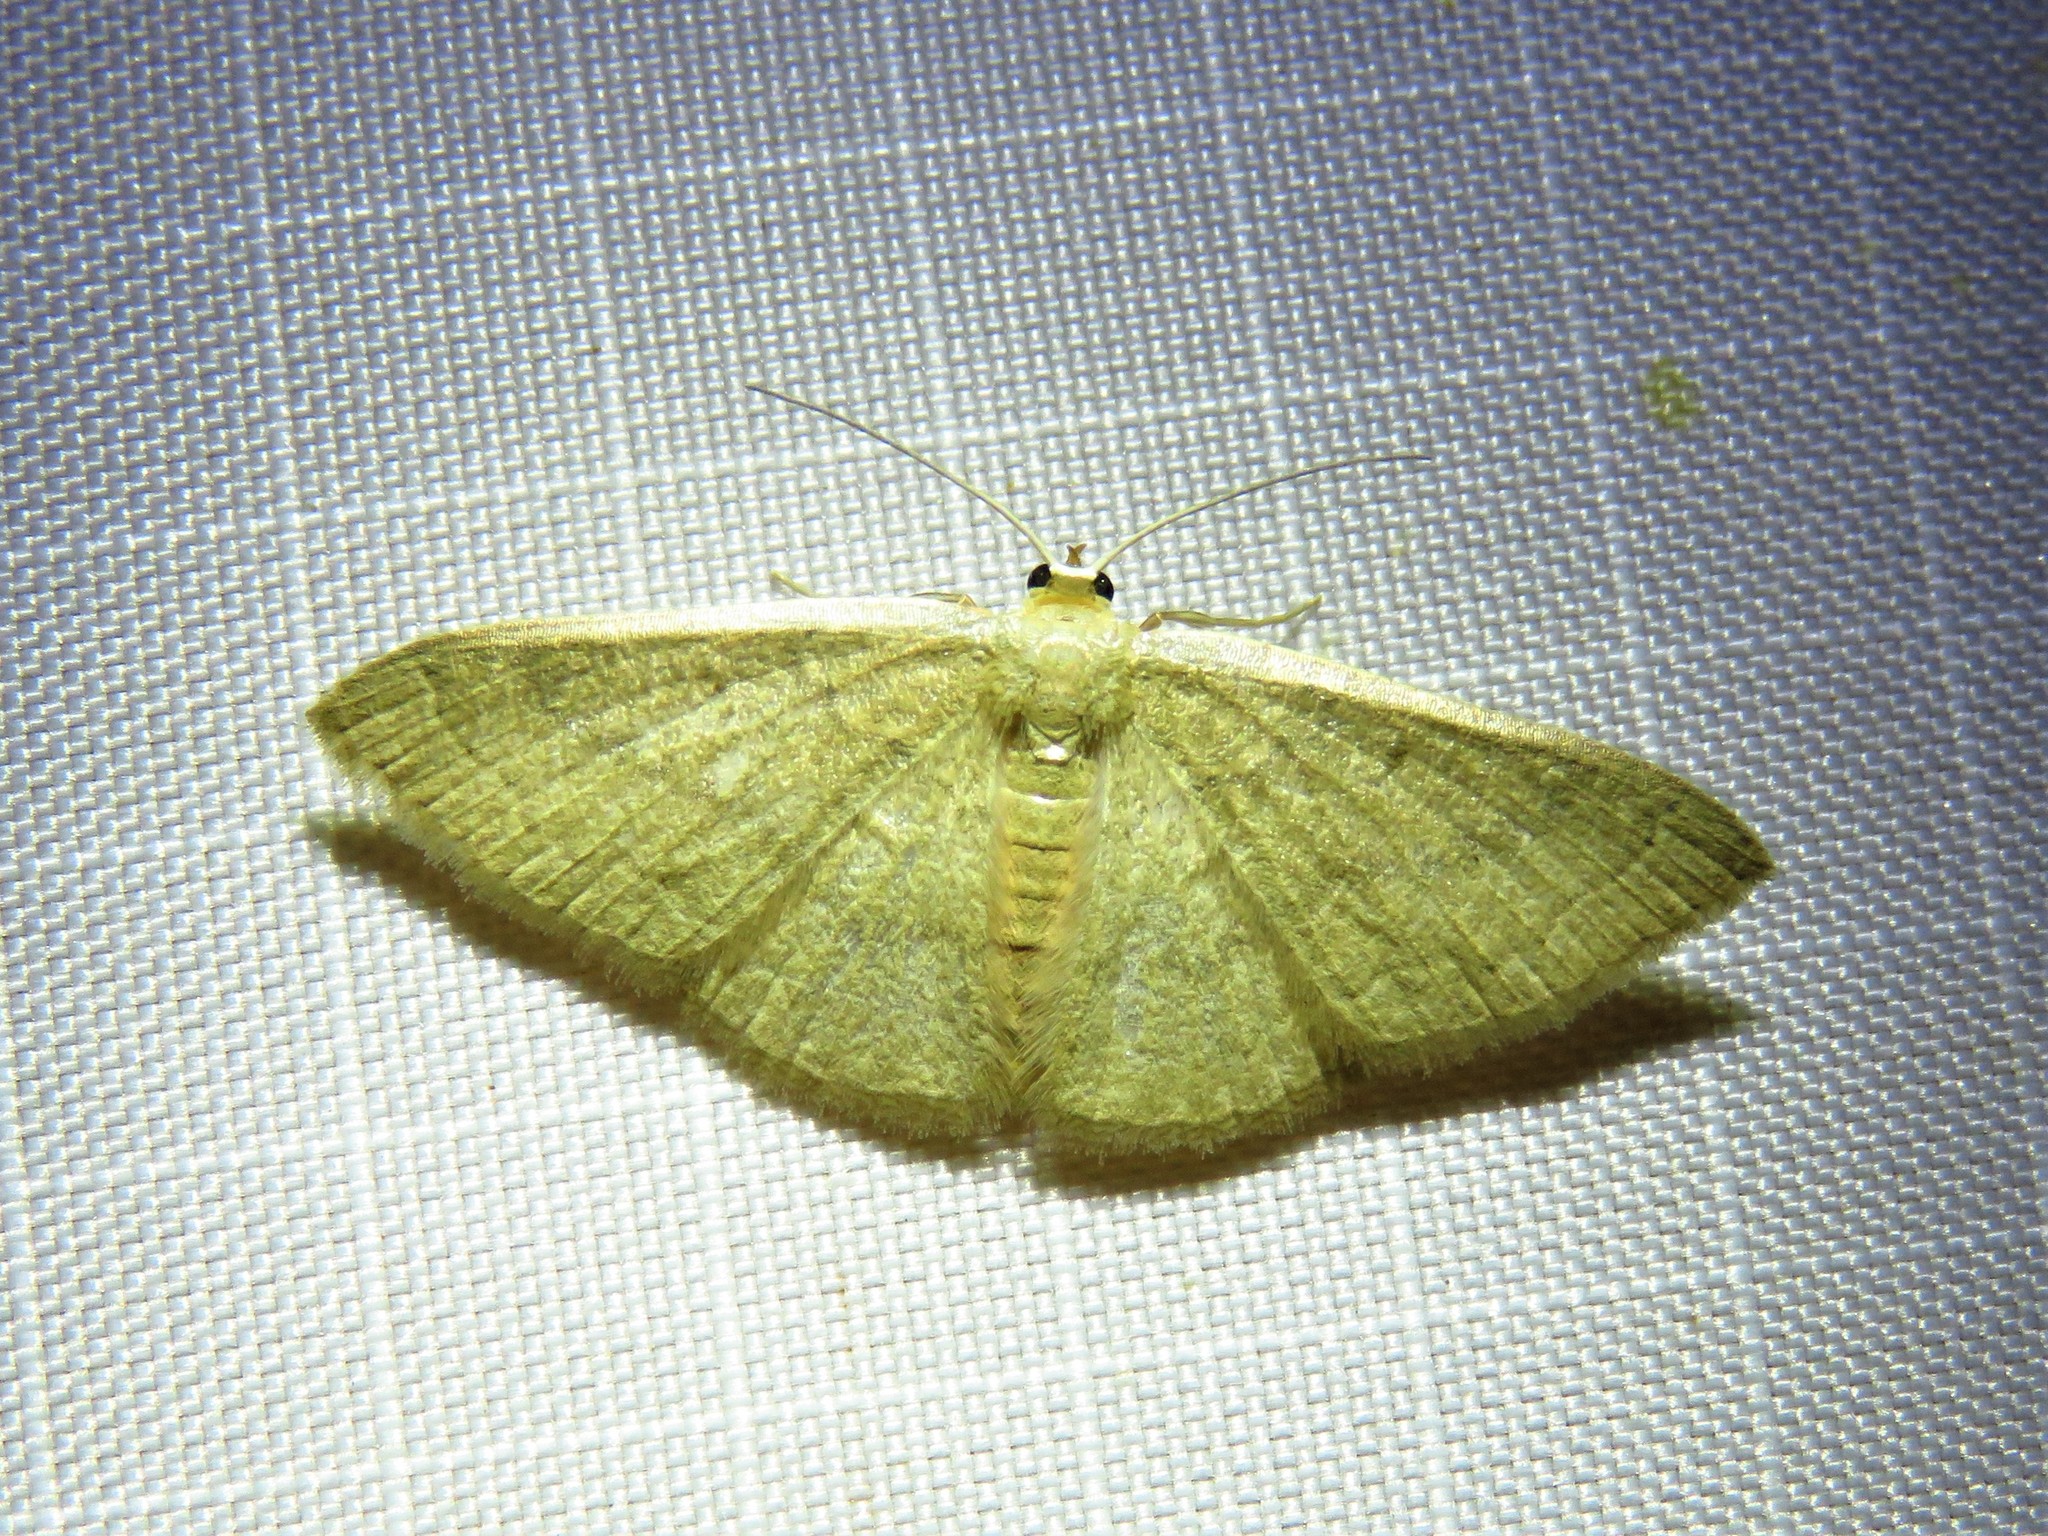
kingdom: Animalia
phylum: Arthropoda
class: Insecta
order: Lepidoptera
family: Geometridae
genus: Pleuroprucha
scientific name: Pleuroprucha insulsaria
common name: Common tan wave
